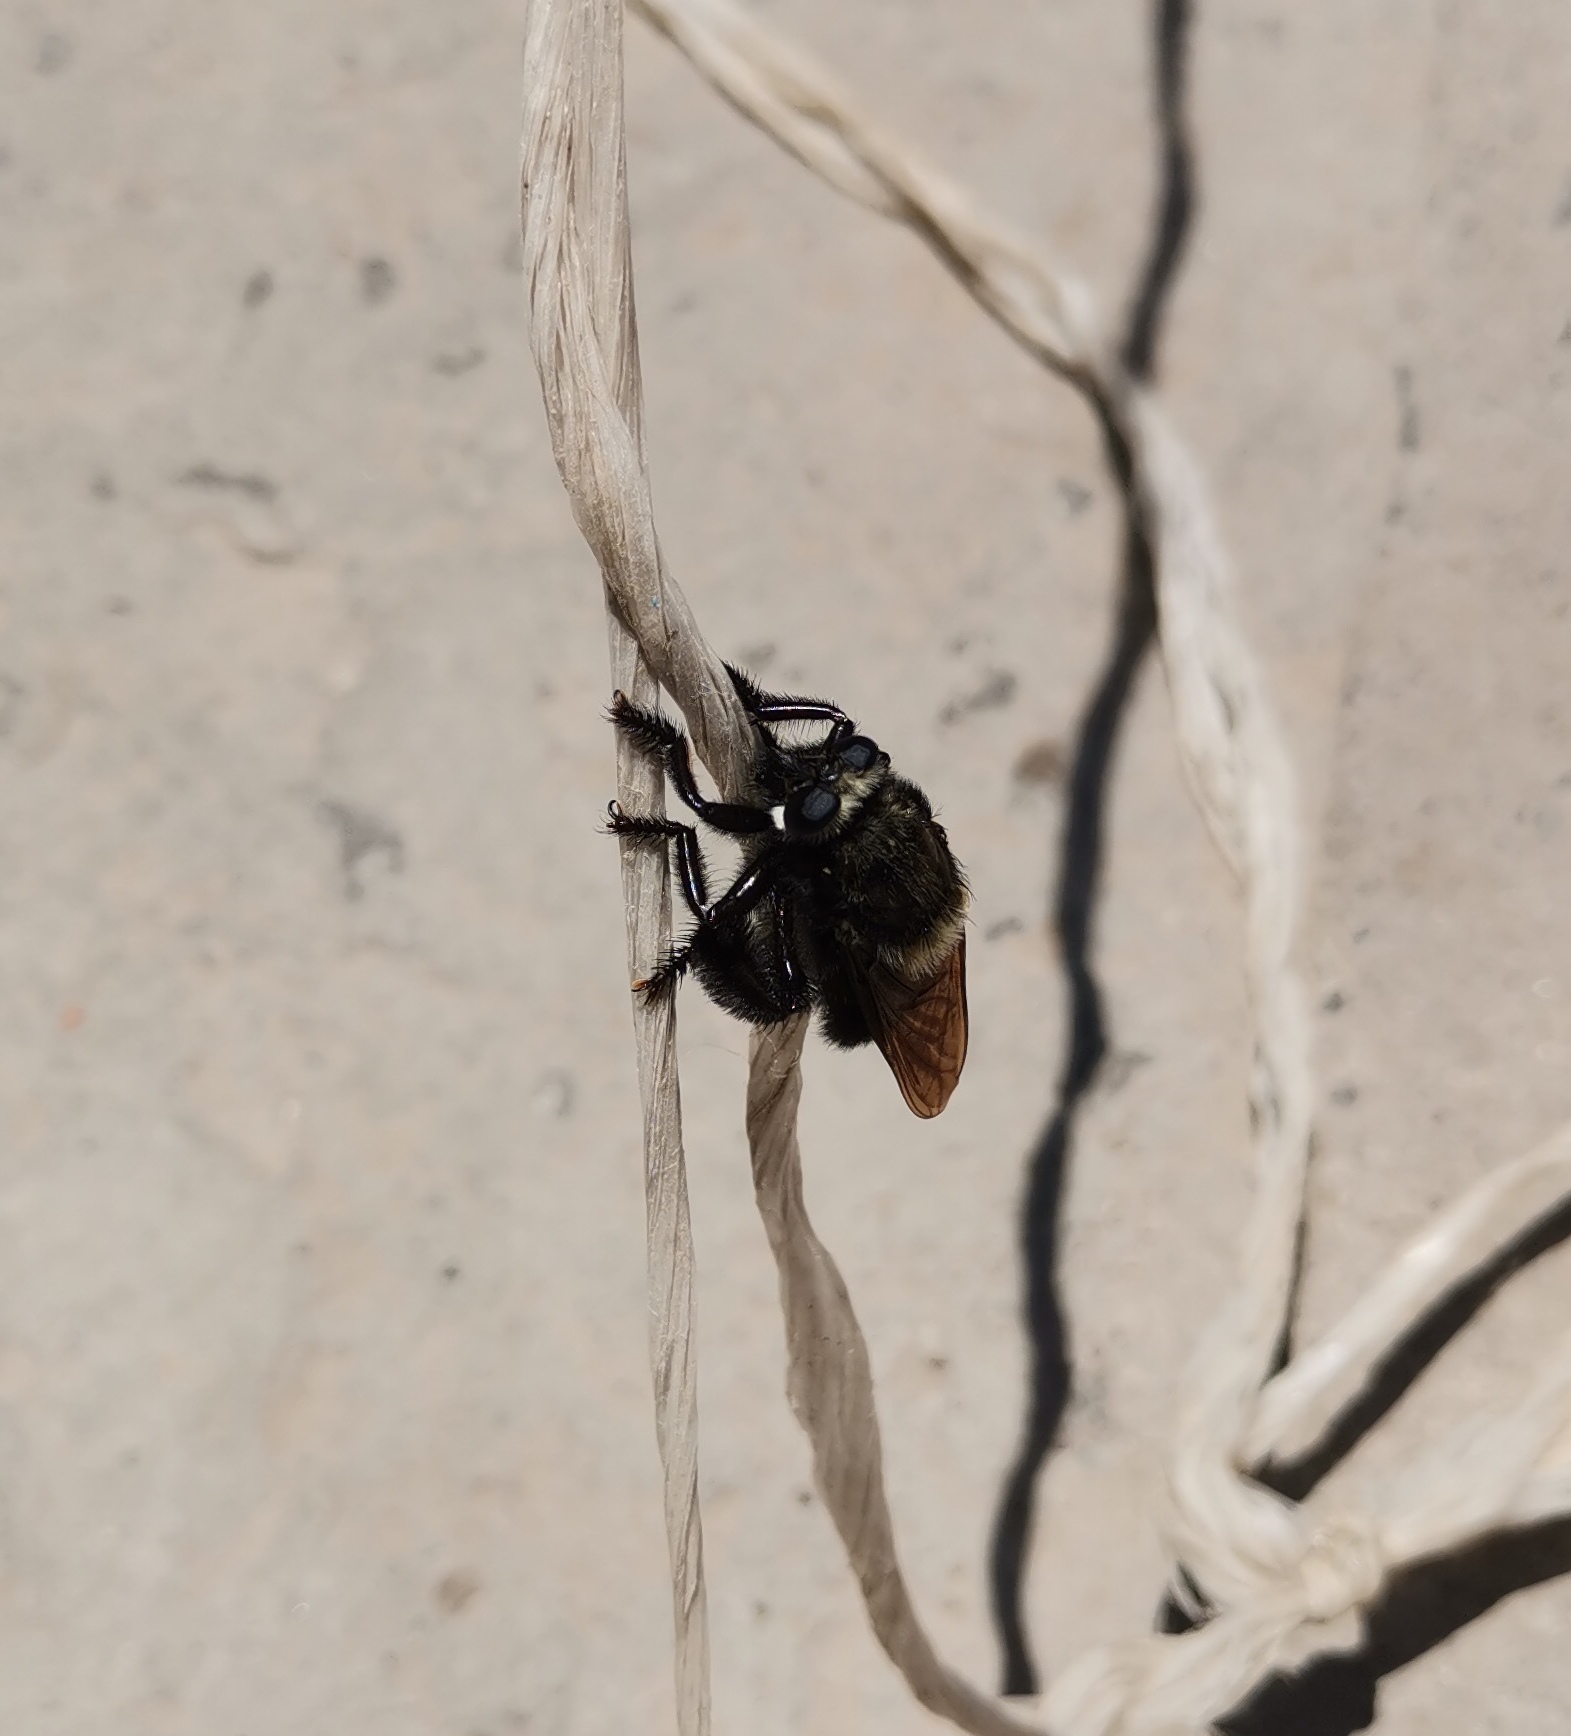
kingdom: Animalia
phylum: Arthropoda
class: Insecta
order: Diptera
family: Asilidae
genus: Mallophora
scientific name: Mallophora leschenaultii
